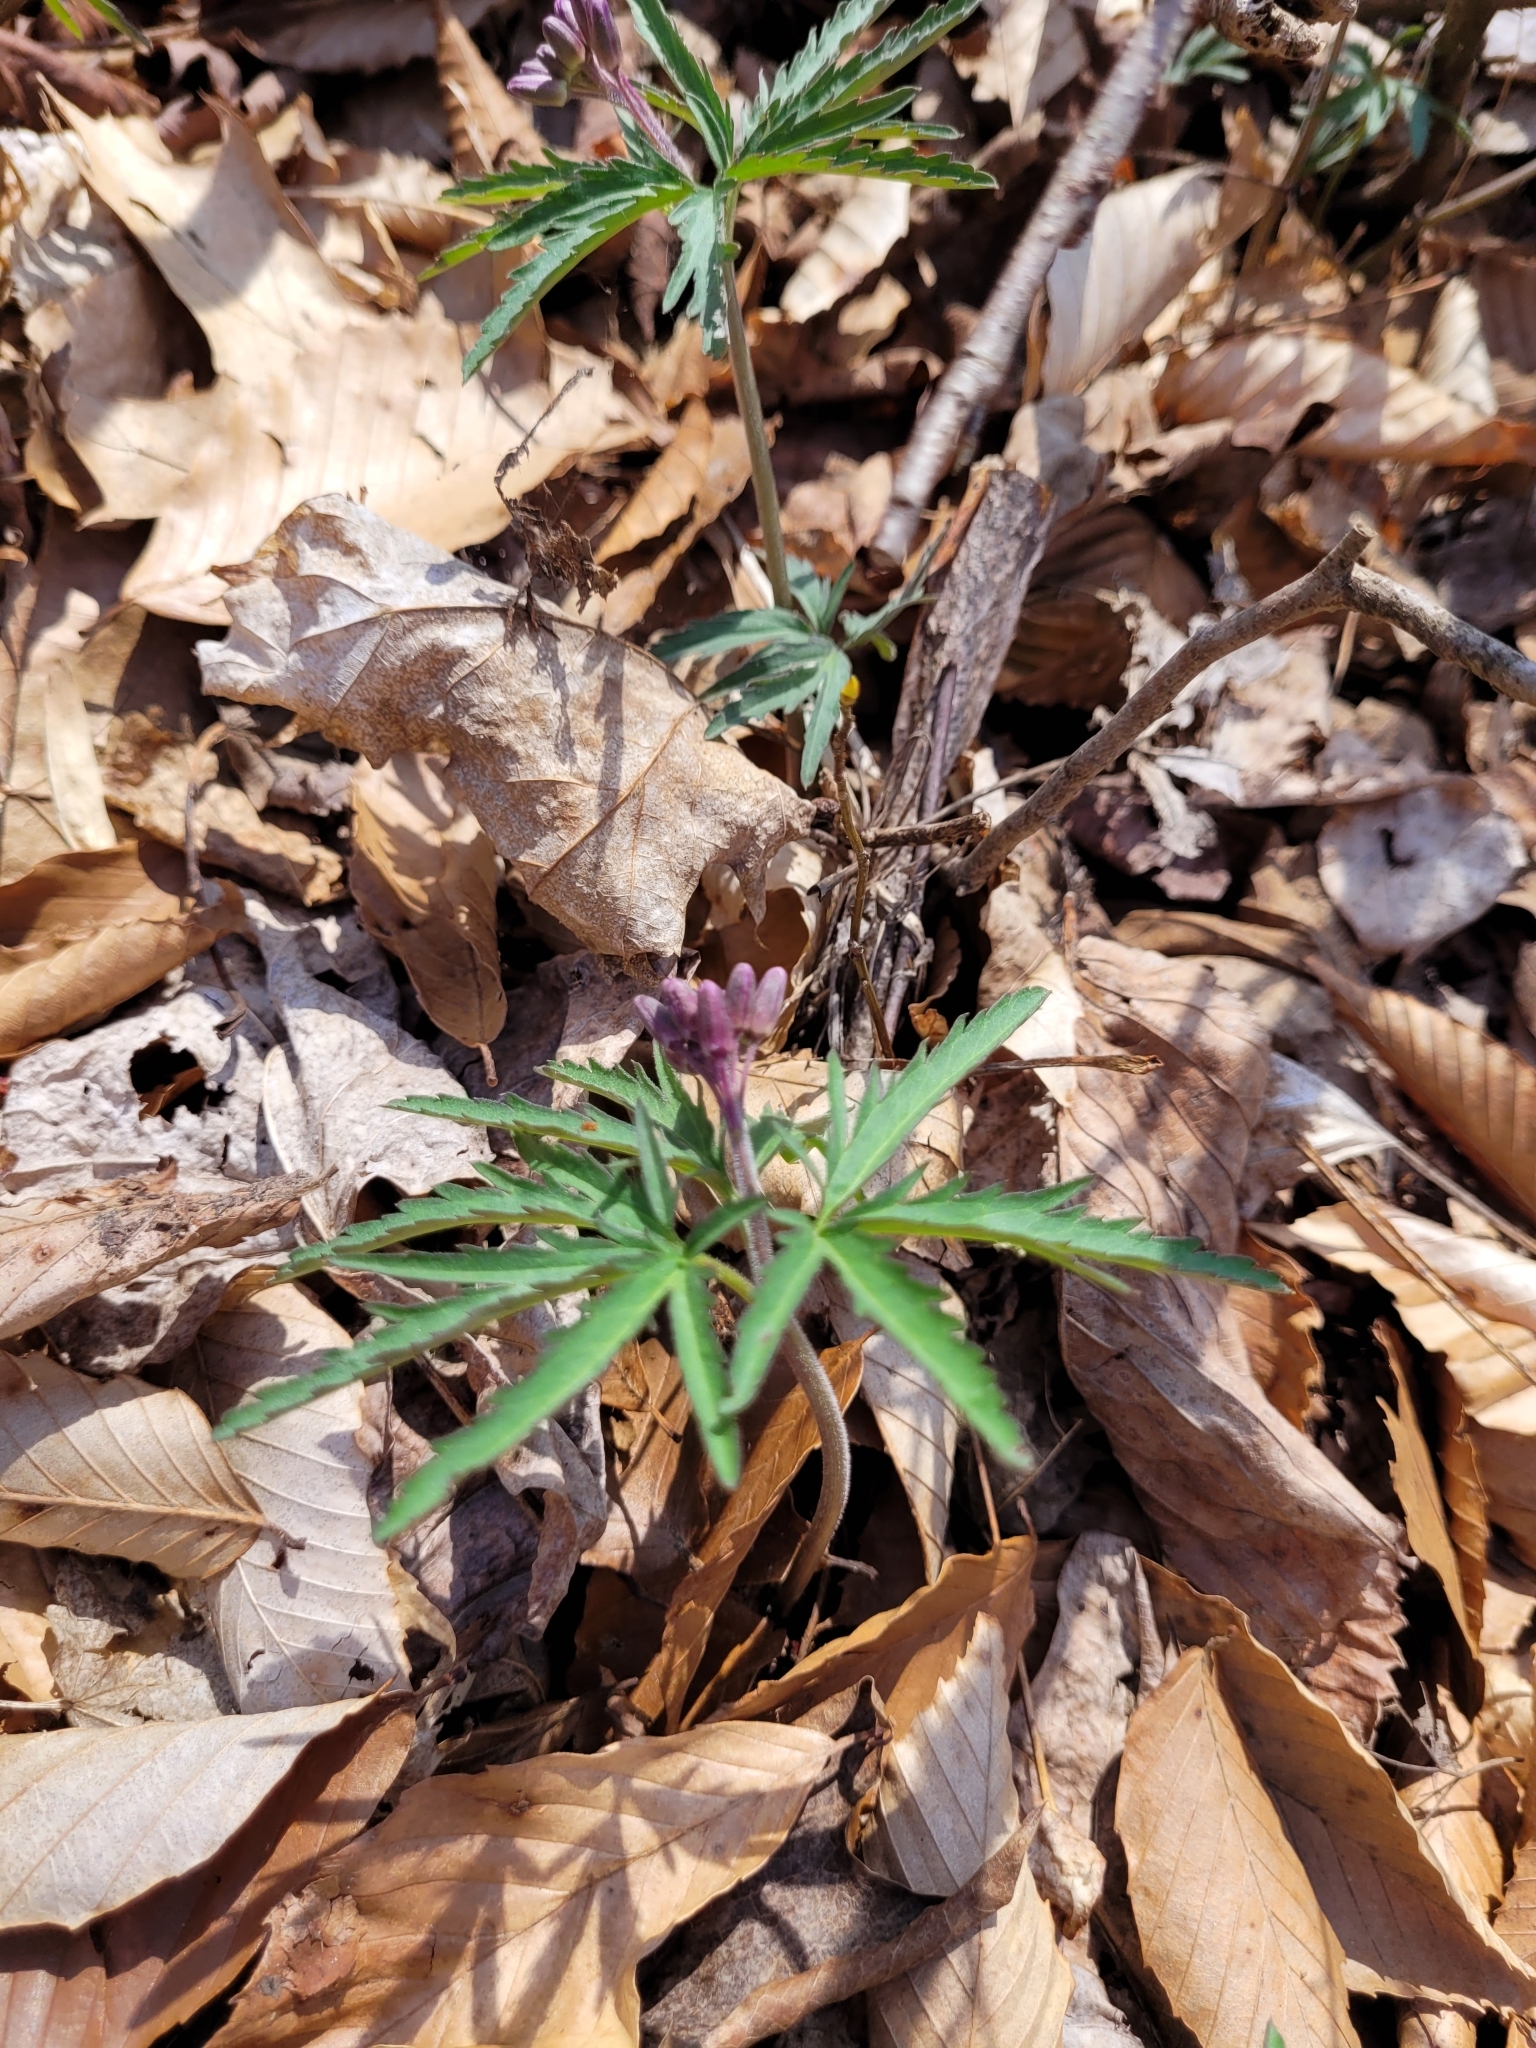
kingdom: Plantae
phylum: Tracheophyta
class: Magnoliopsida
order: Brassicales
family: Brassicaceae
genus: Cardamine
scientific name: Cardamine concatenata
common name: Cut-leaf toothcup
